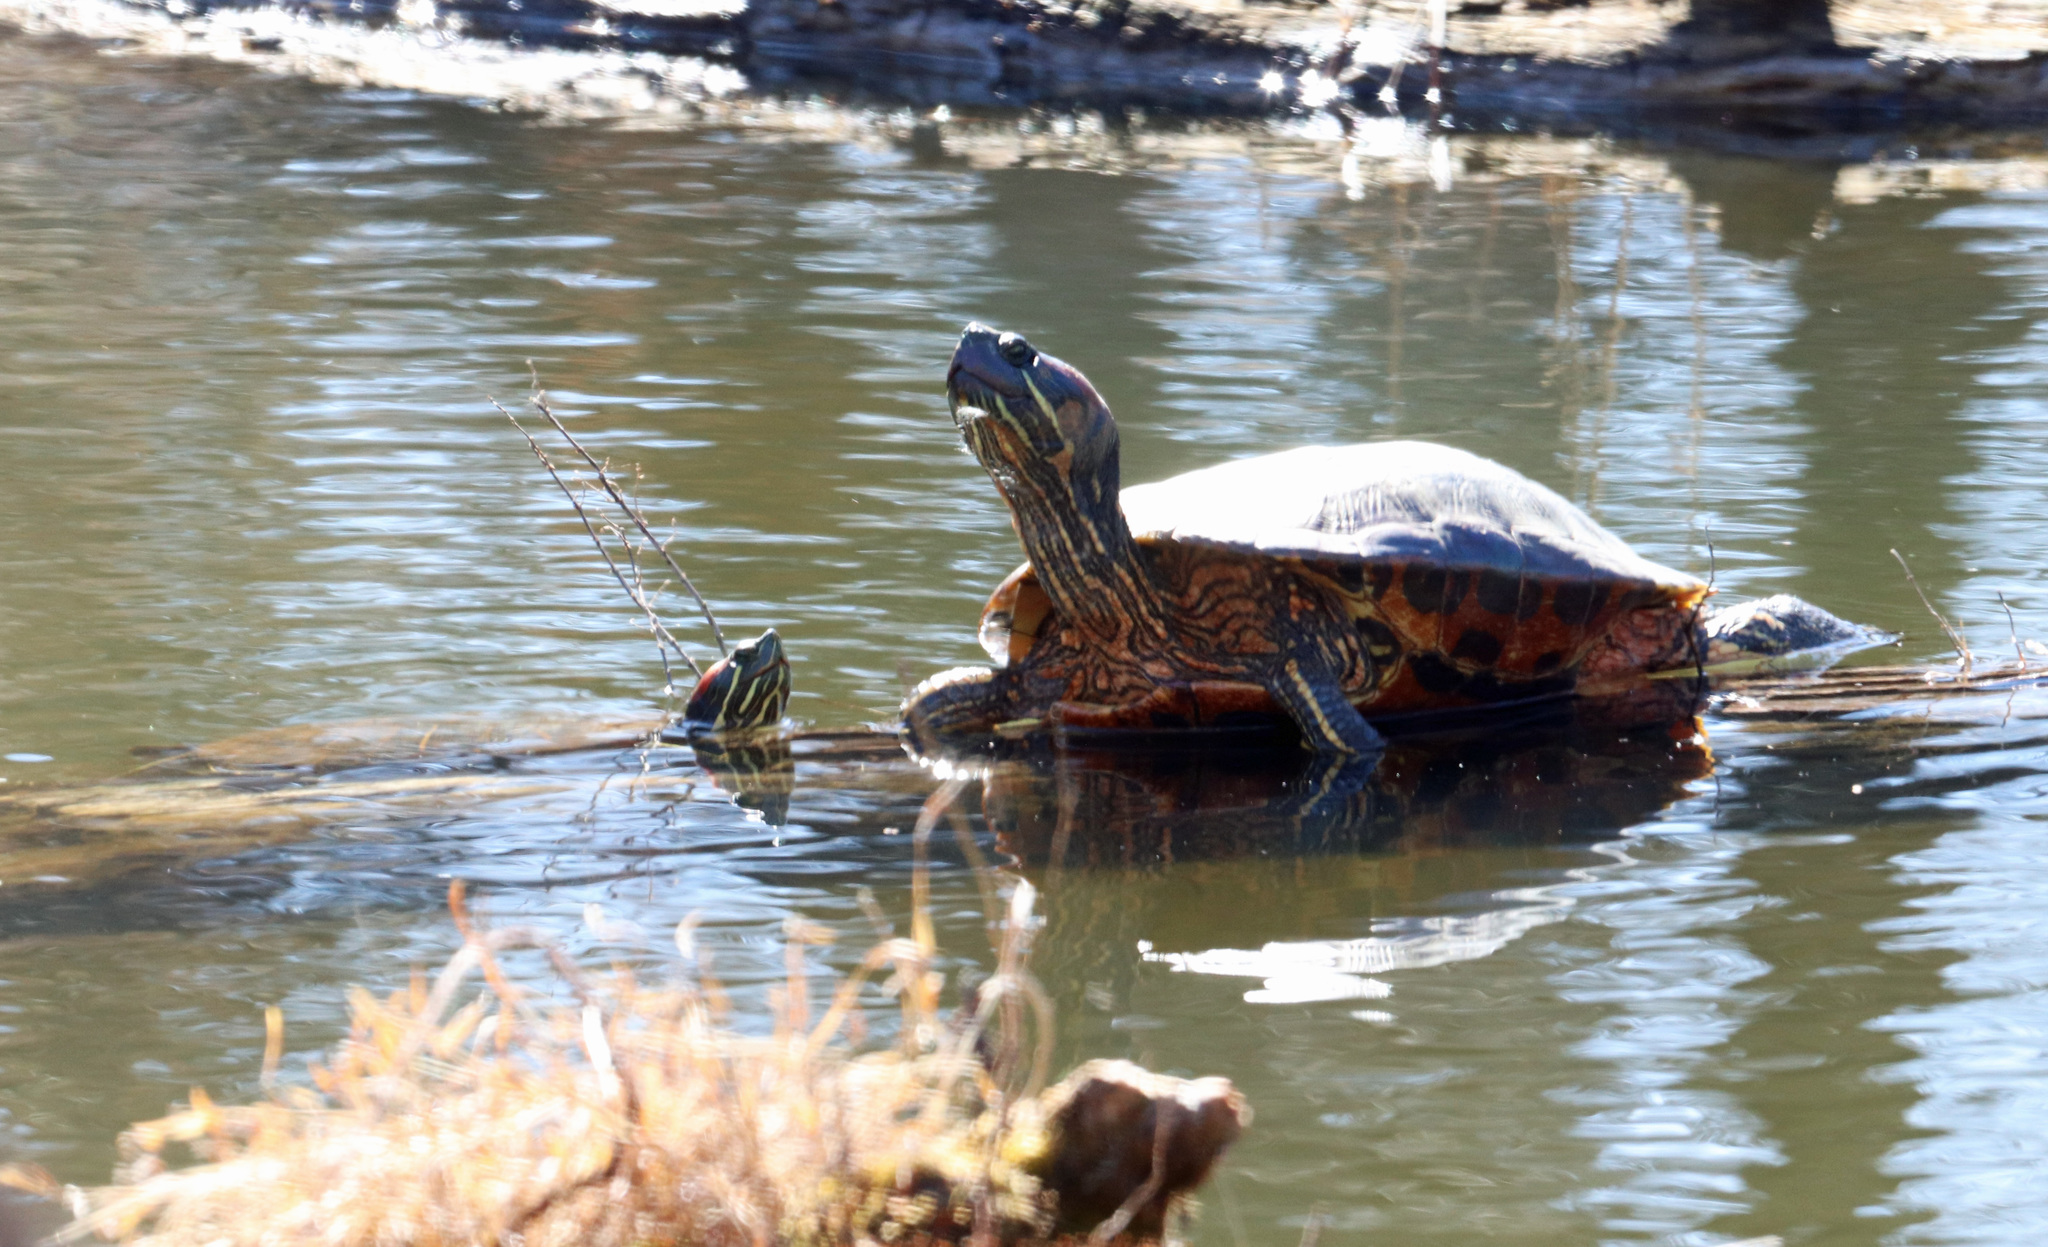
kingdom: Animalia
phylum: Chordata
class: Testudines
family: Emydidae
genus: Trachemys
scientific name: Trachemys scripta
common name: Slider
